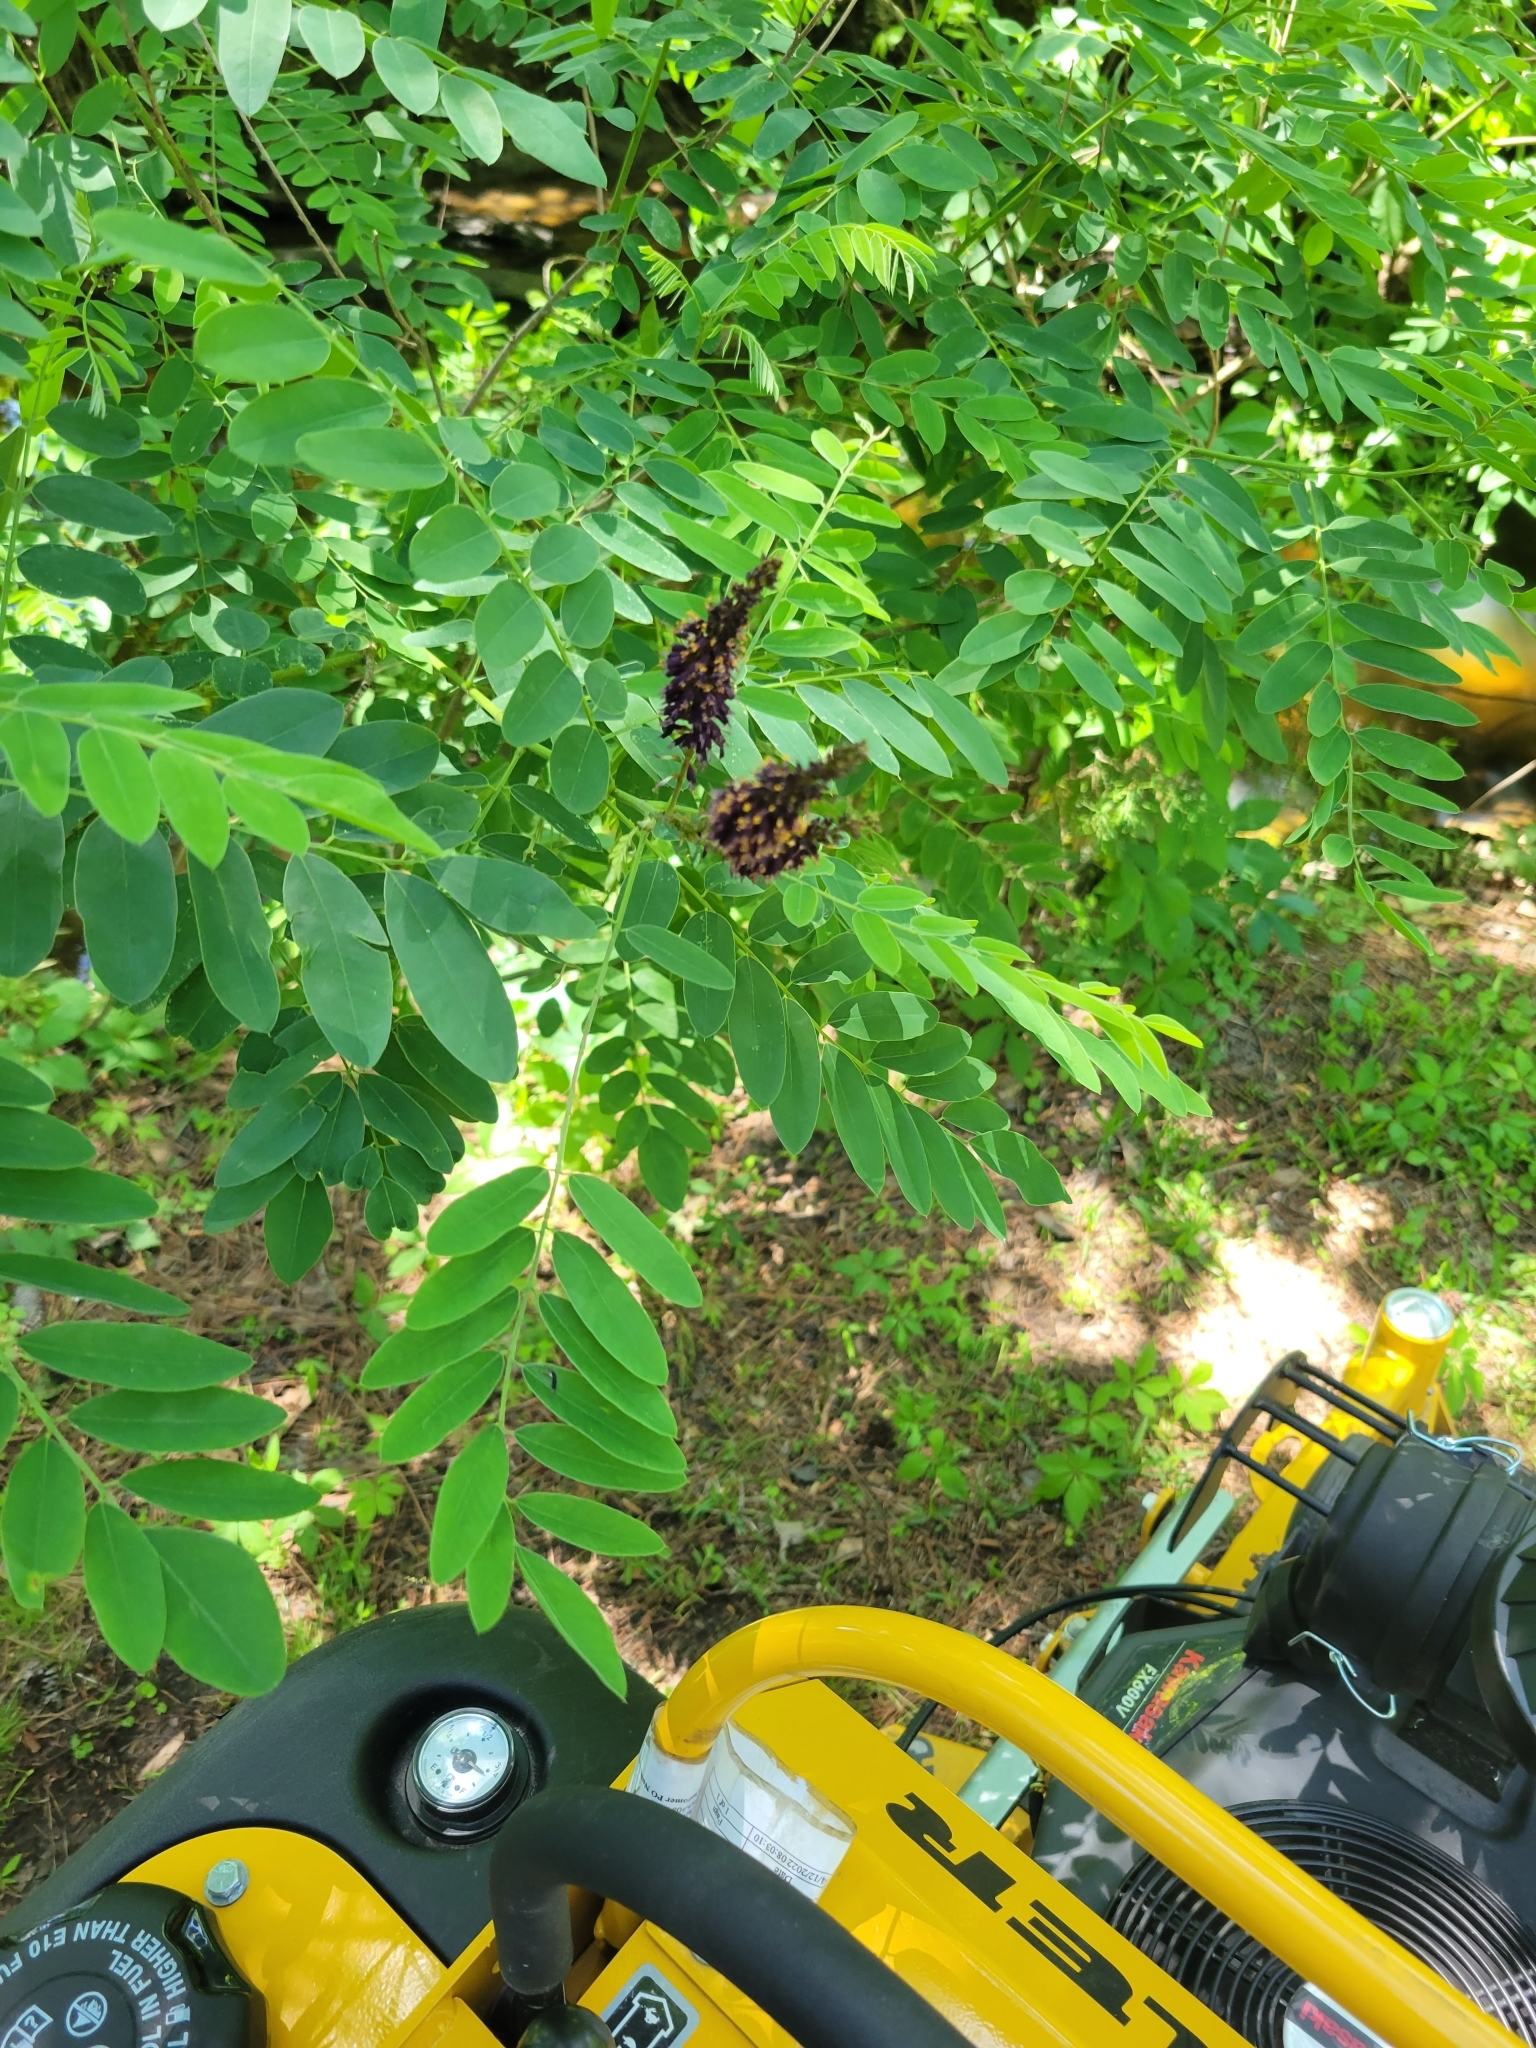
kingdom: Plantae
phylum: Tracheophyta
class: Magnoliopsida
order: Fabales
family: Fabaceae
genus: Amorpha
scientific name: Amorpha fruticosa
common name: False indigo
